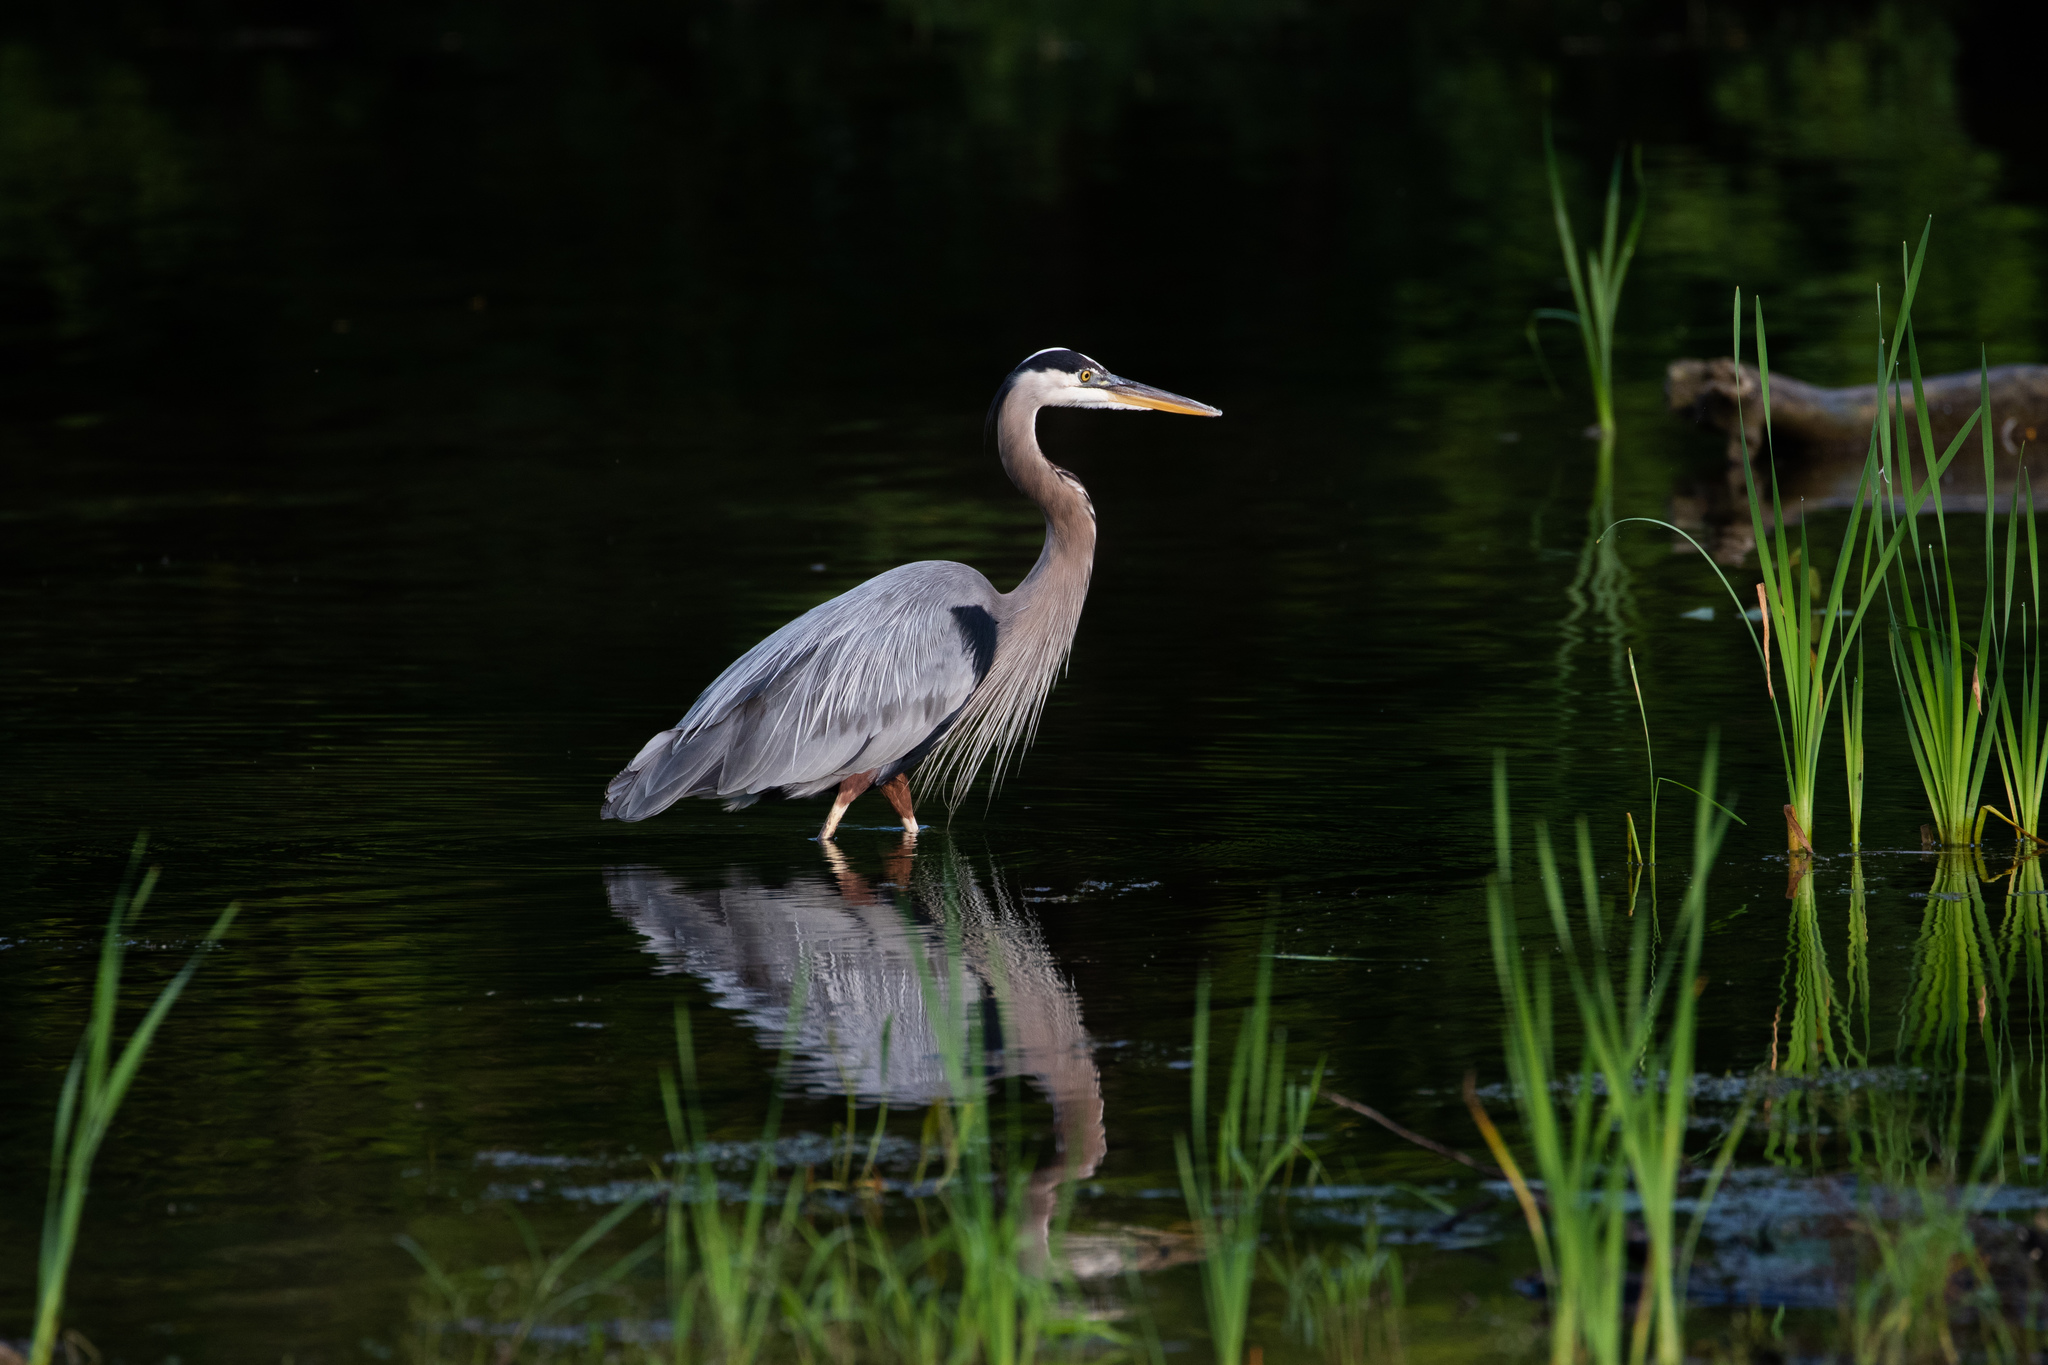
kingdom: Animalia
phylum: Chordata
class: Aves
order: Pelecaniformes
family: Ardeidae
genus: Ardea
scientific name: Ardea herodias
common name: Great blue heron
